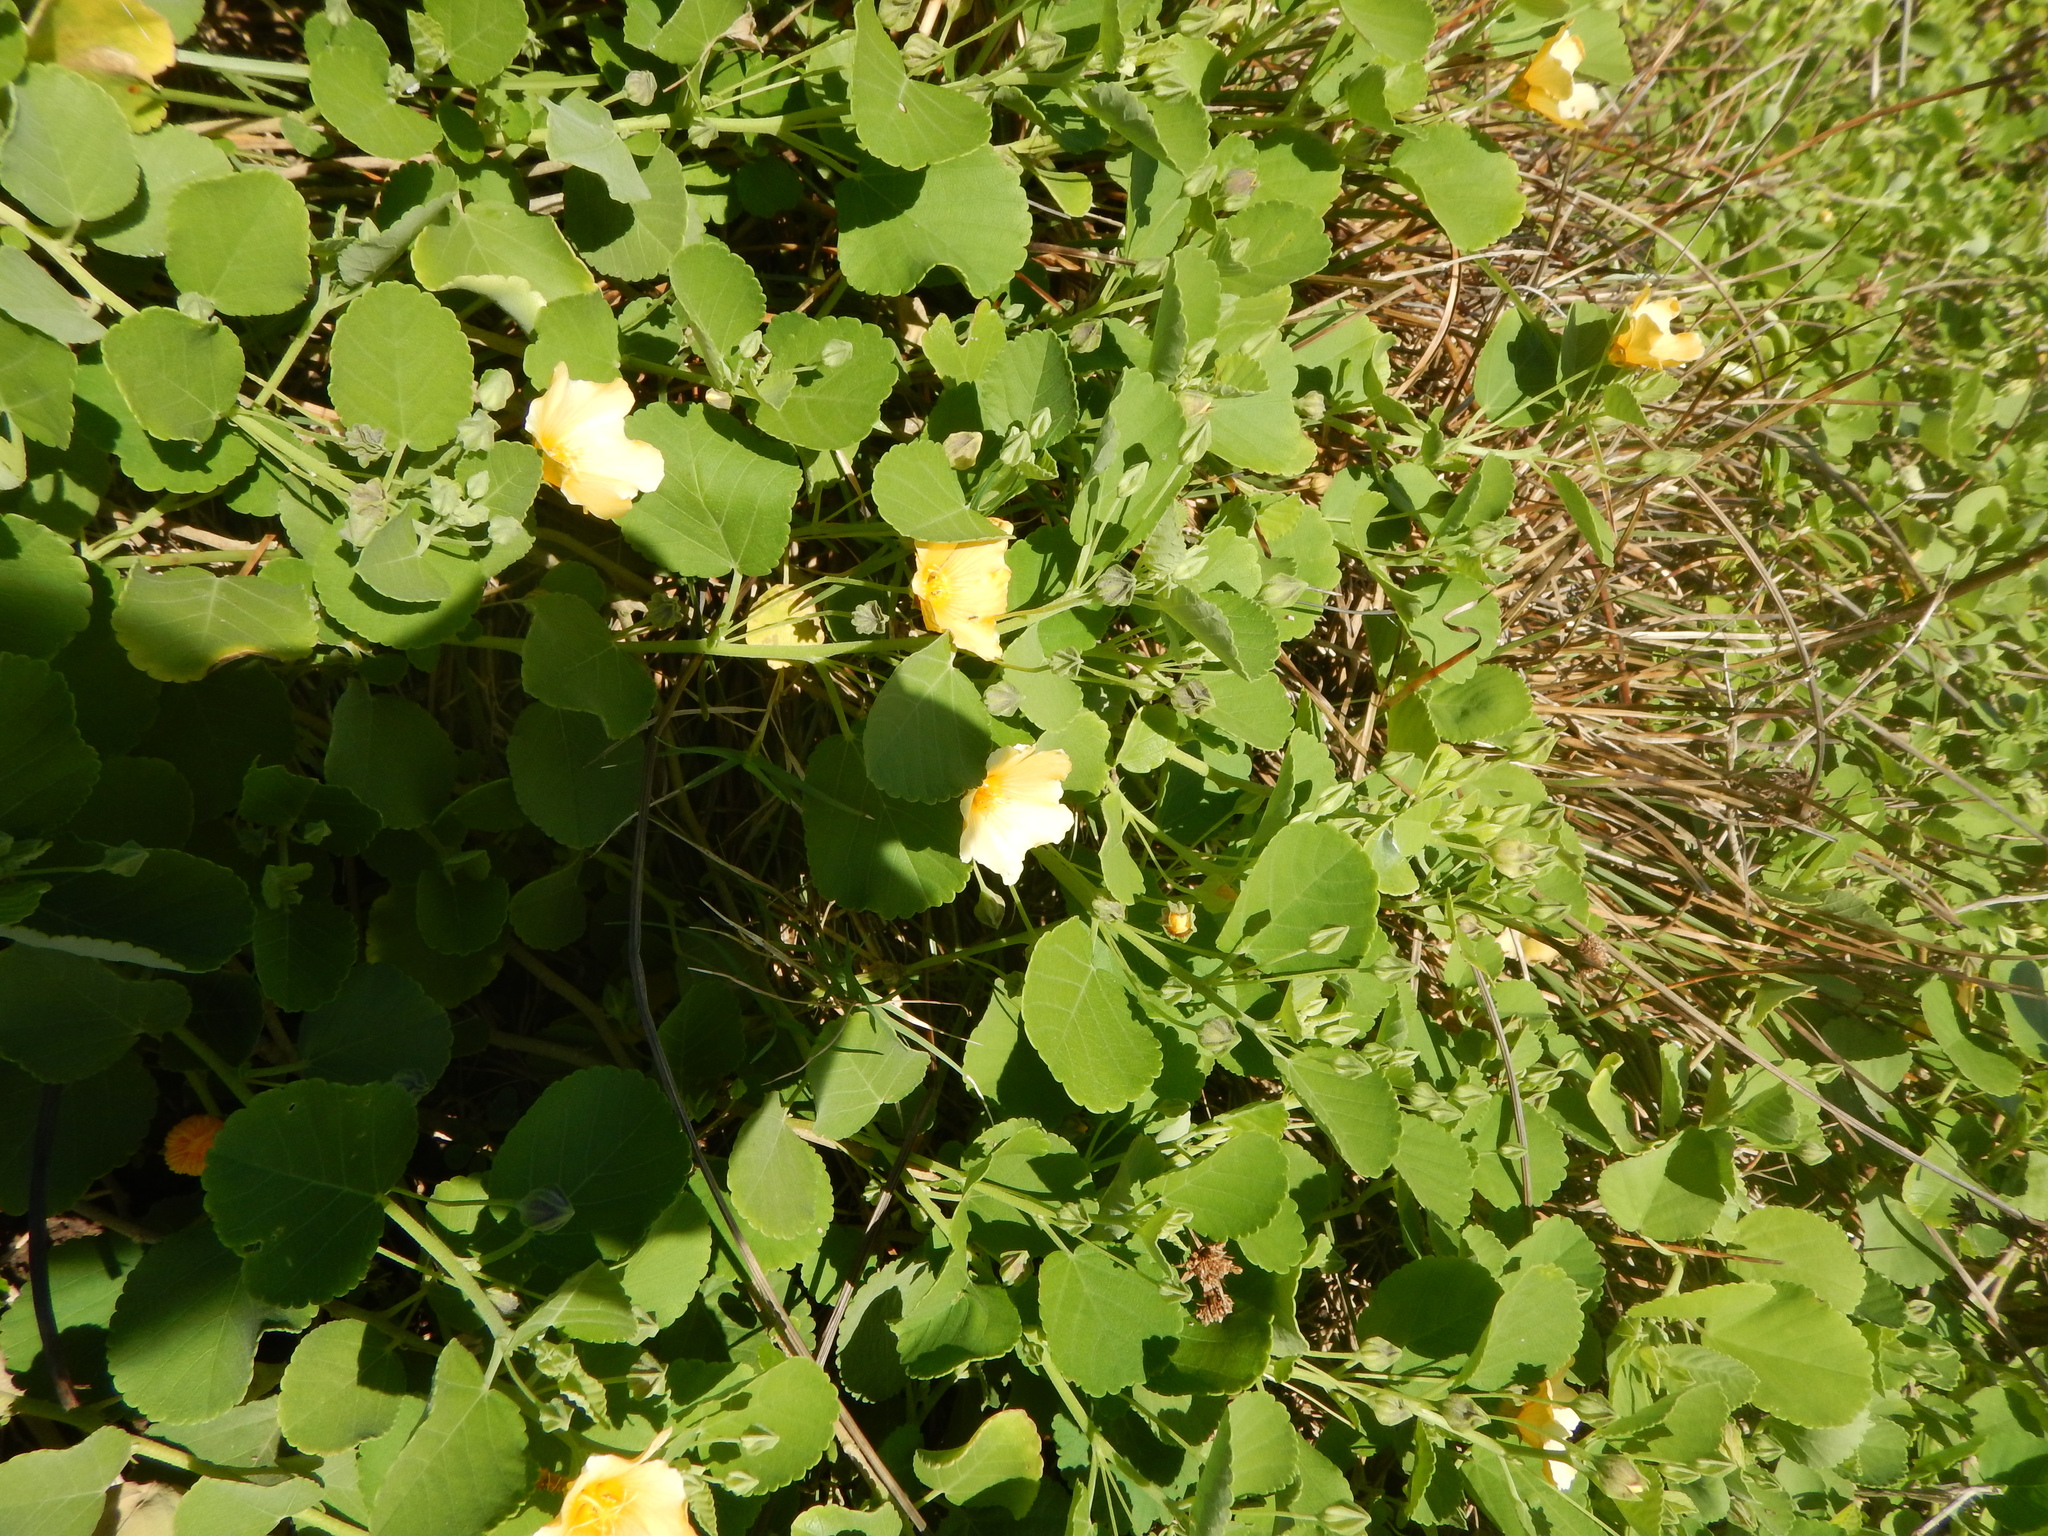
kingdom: Plantae
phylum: Tracheophyta
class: Magnoliopsida
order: Malvales
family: Malvaceae
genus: Sida
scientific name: Sida fallax
